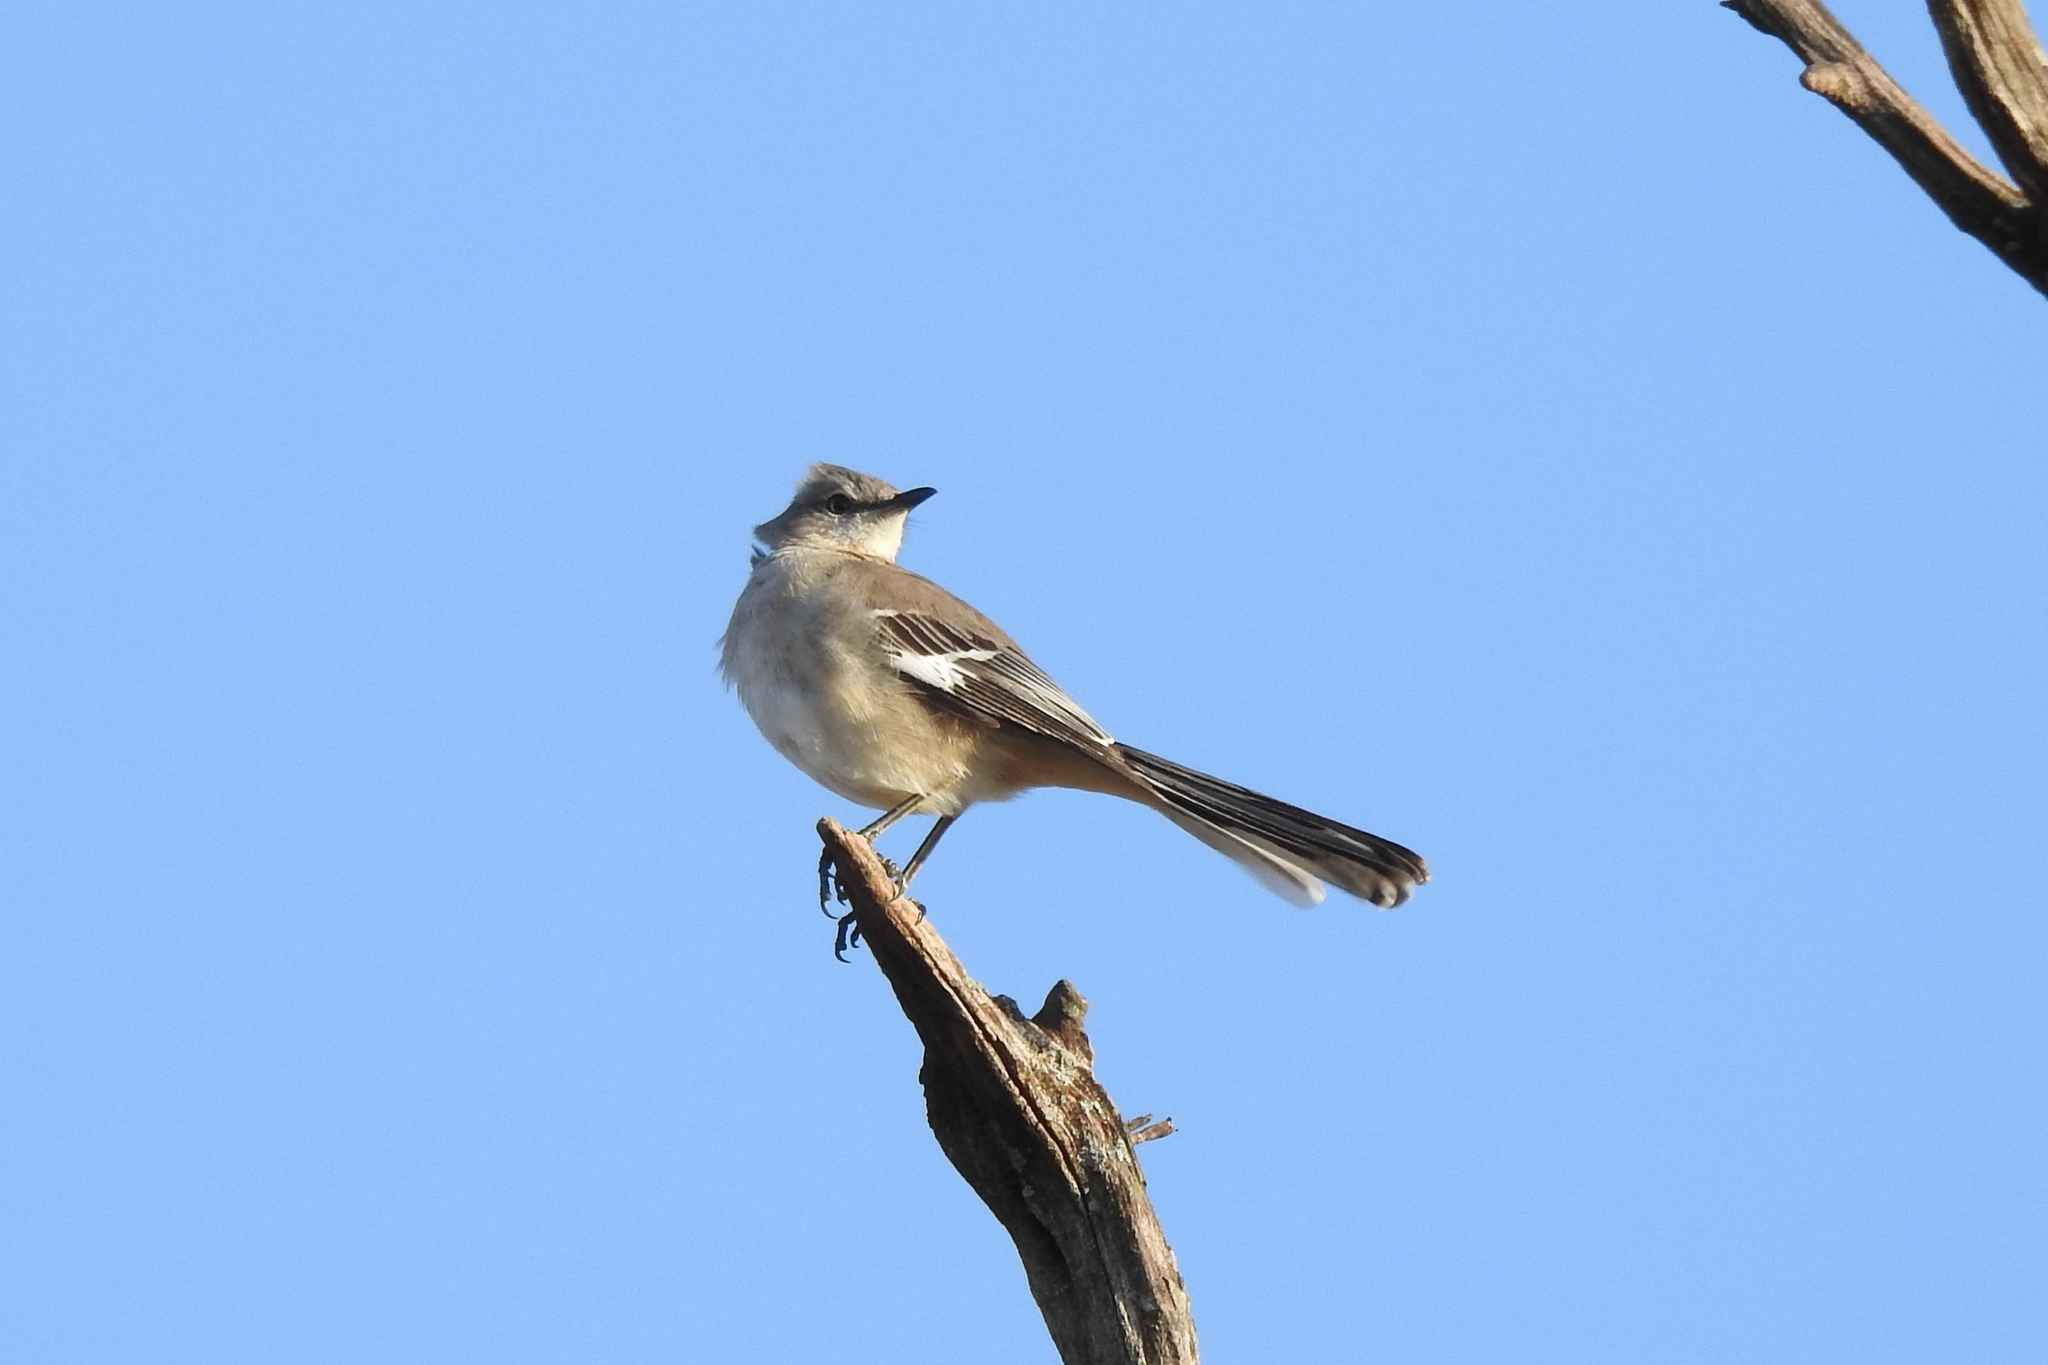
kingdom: Animalia
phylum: Chordata
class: Aves
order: Passeriformes
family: Mimidae
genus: Mimus
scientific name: Mimus polyglottos
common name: Northern mockingbird
